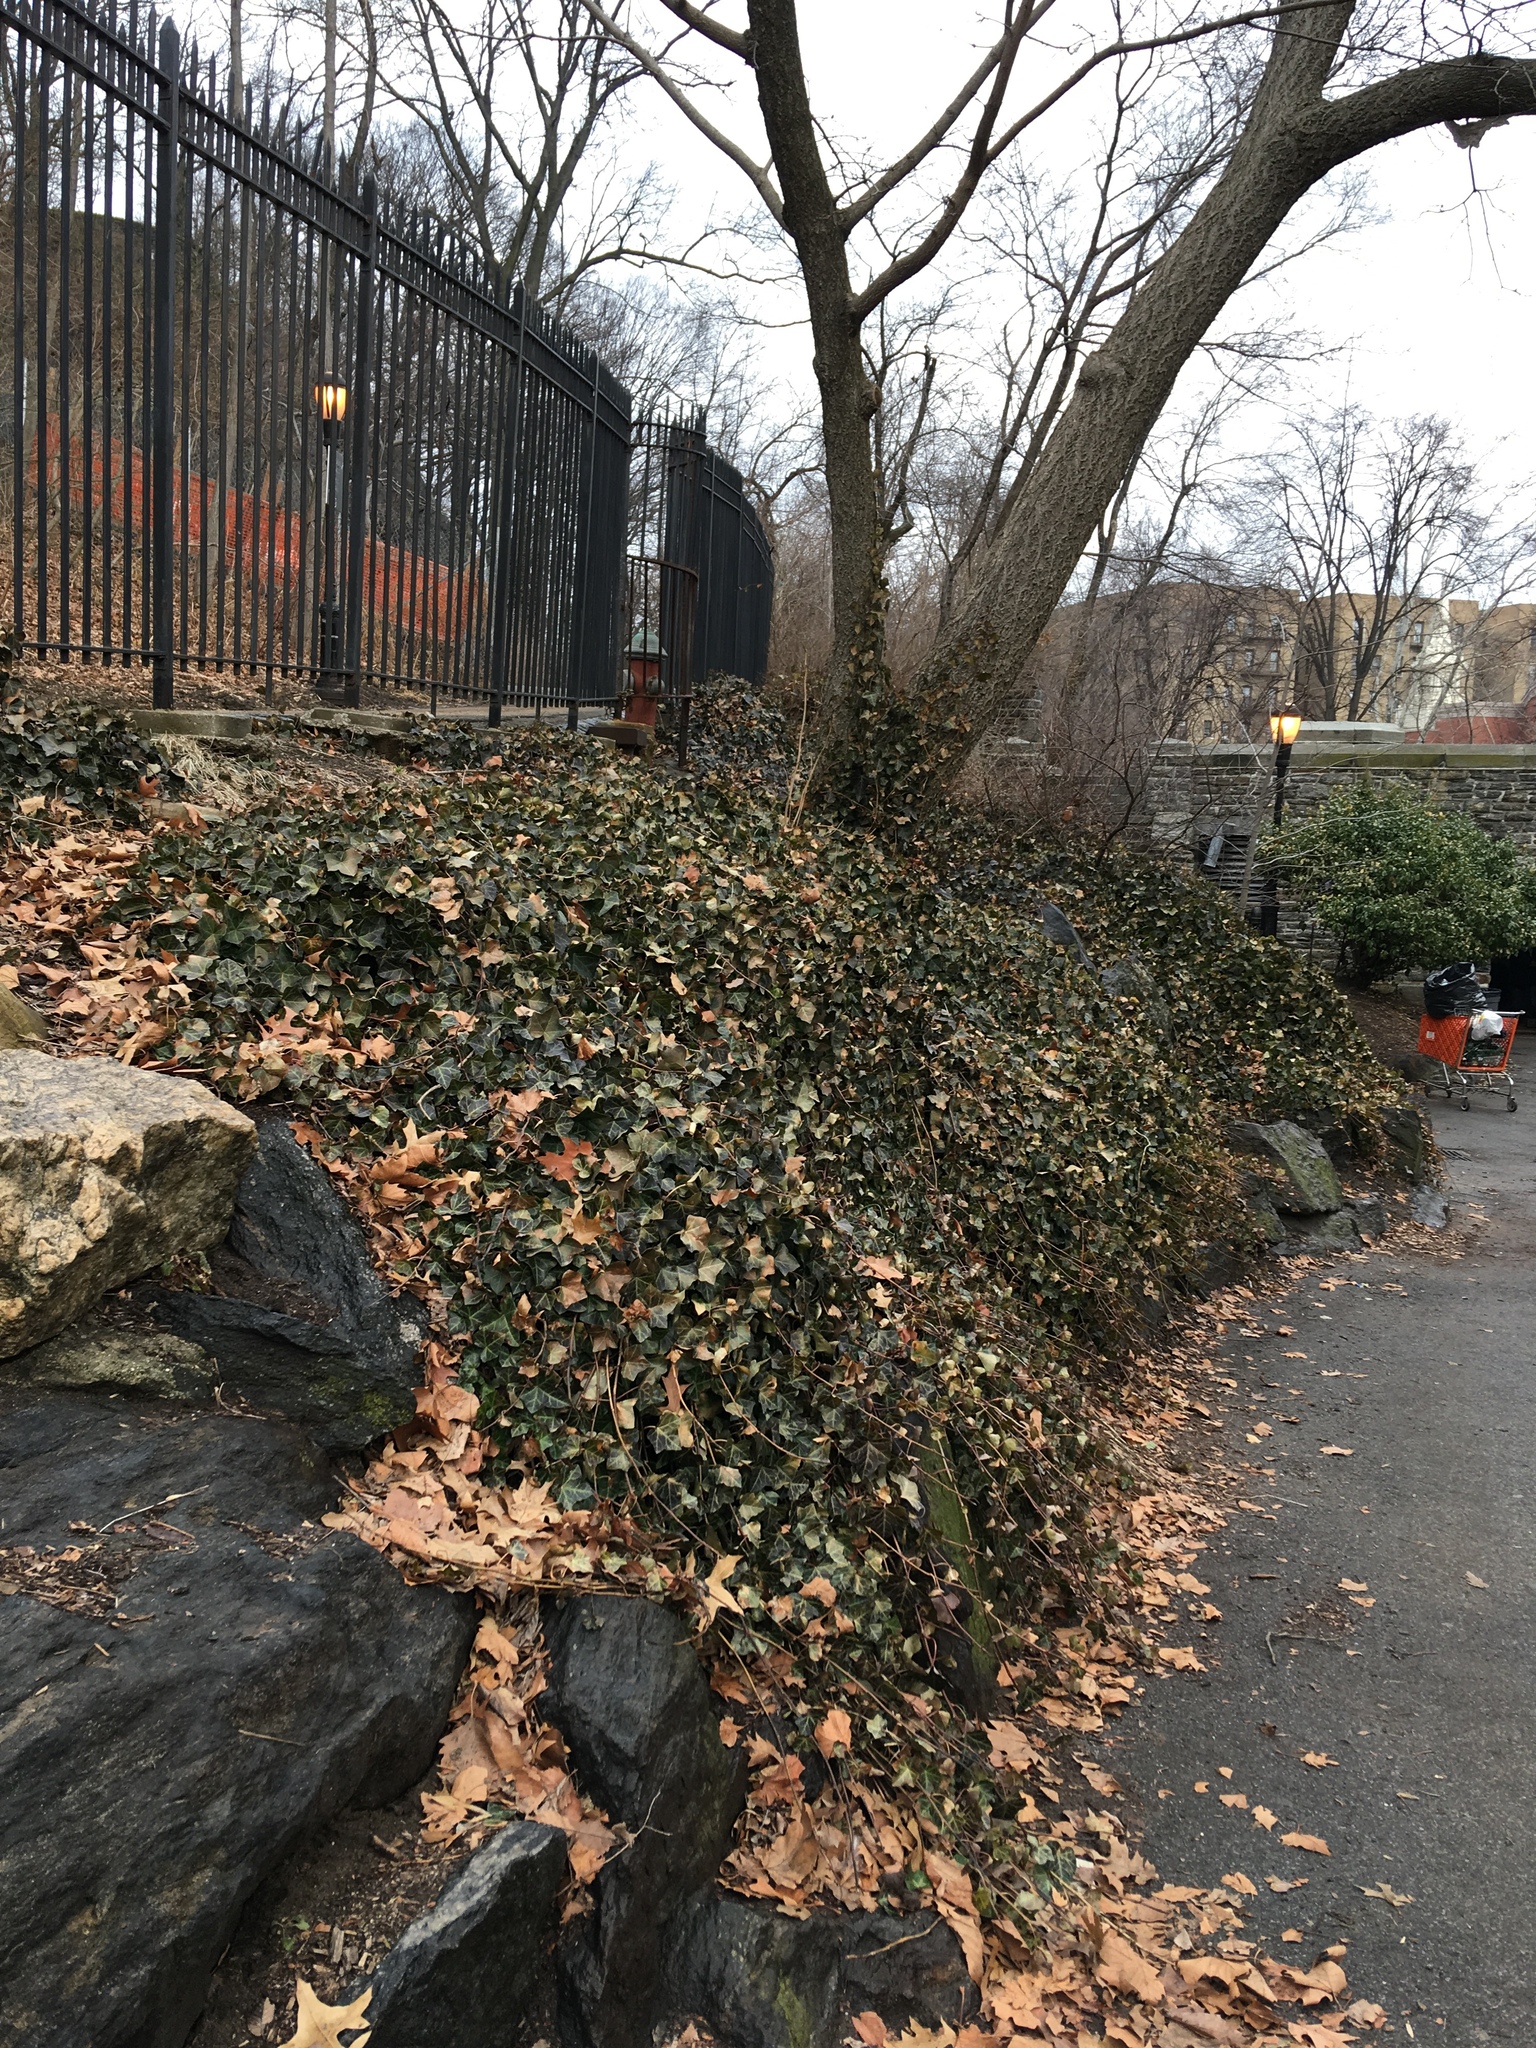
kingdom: Plantae
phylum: Tracheophyta
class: Magnoliopsida
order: Apiales
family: Araliaceae
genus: Hedera
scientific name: Hedera helix
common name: Ivy
